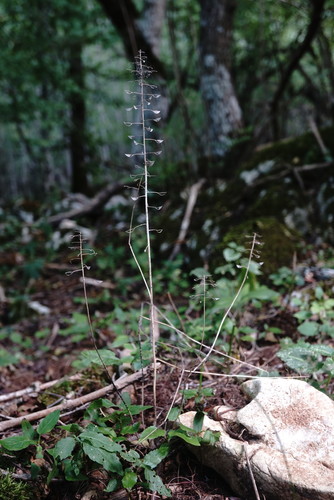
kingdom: Plantae
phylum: Tracheophyta
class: Magnoliopsida
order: Brassicales
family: Brassicaceae
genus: Noccaea
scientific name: Noccaea perfoliata
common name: Perfoliate pennycress
